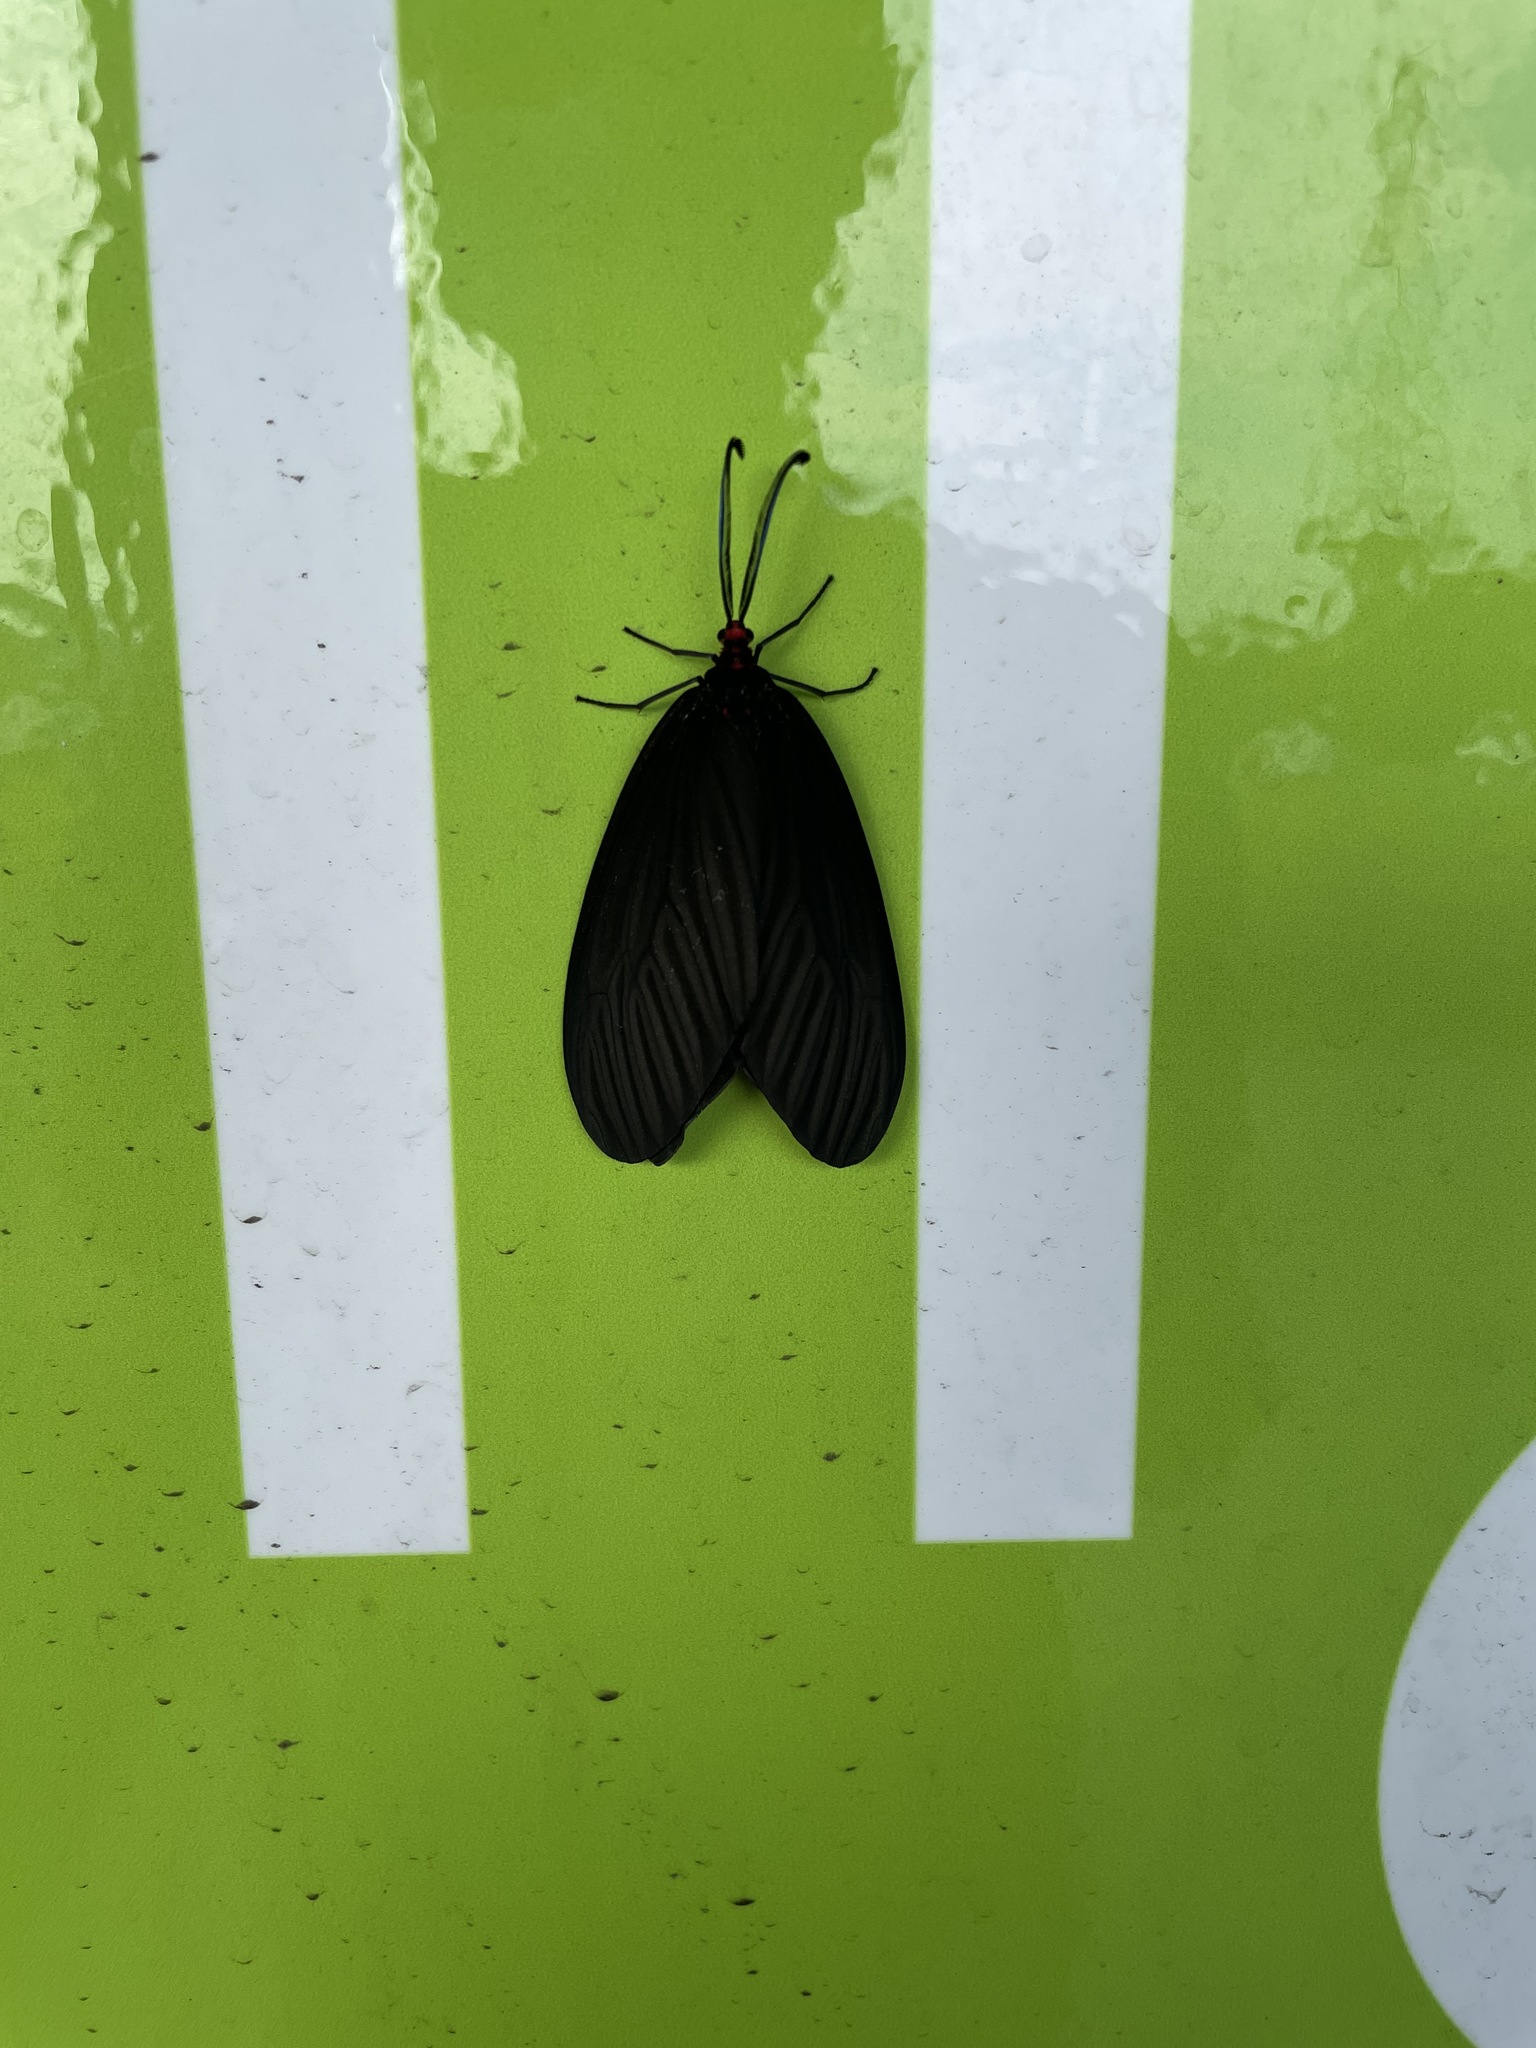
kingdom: Animalia
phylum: Arthropoda
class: Insecta
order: Lepidoptera
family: Zygaenidae
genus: Histia
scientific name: Histia flabellicornis
